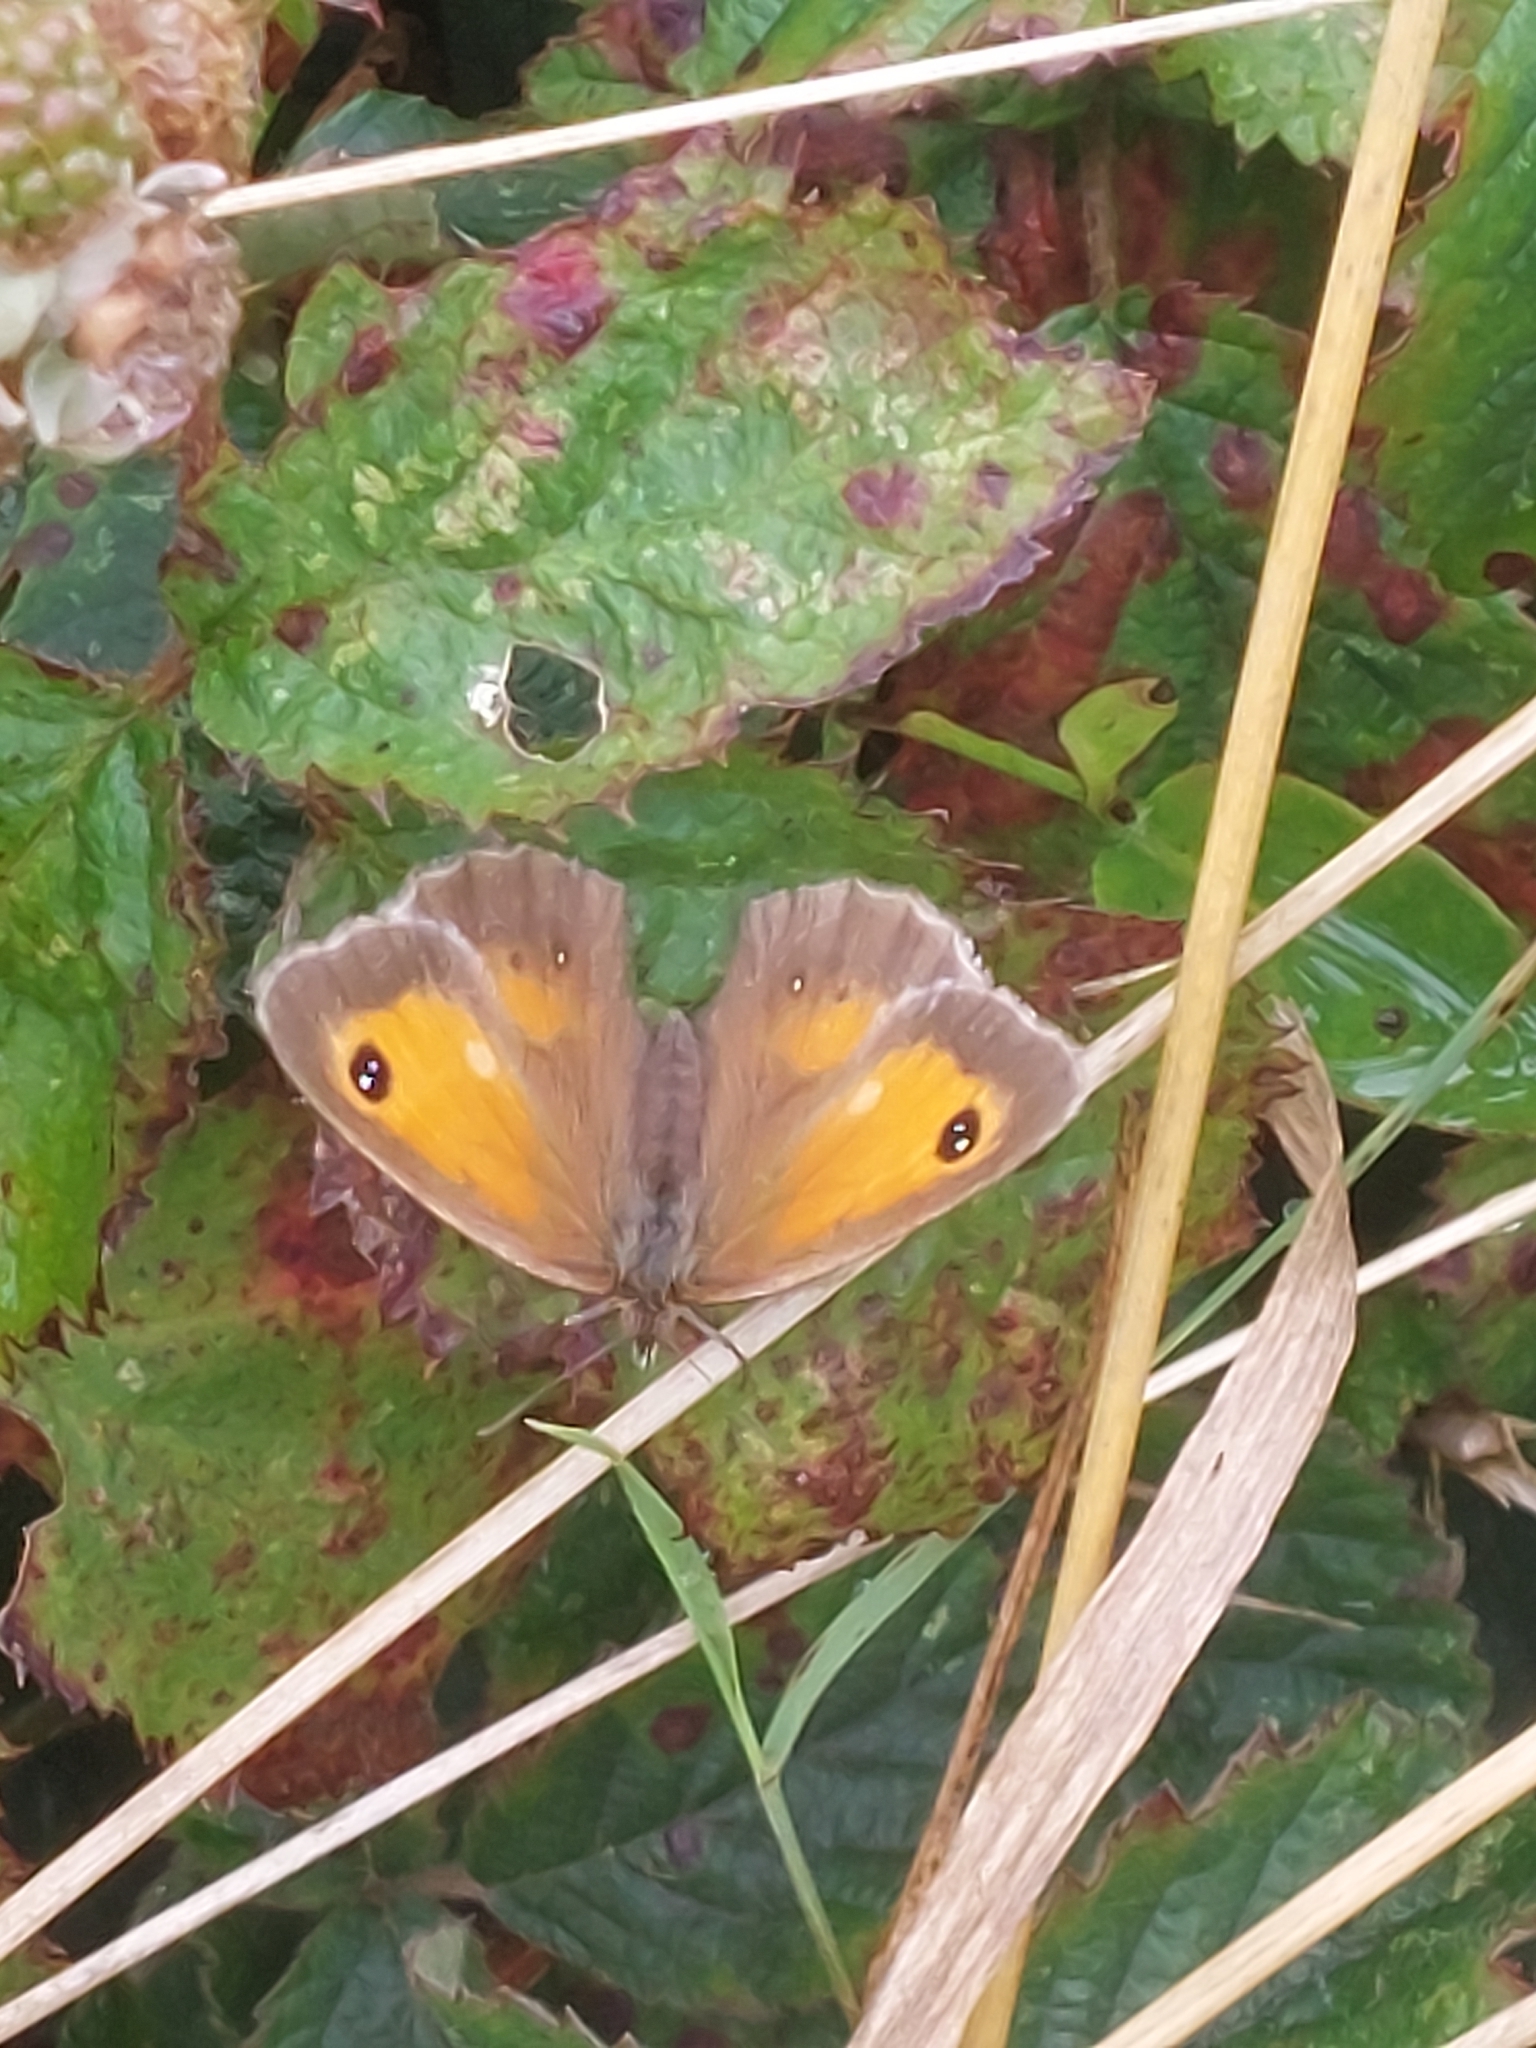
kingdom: Animalia
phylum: Arthropoda
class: Insecta
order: Lepidoptera
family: Nymphalidae
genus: Pyronia
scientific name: Pyronia tithonus
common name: Gatekeeper
